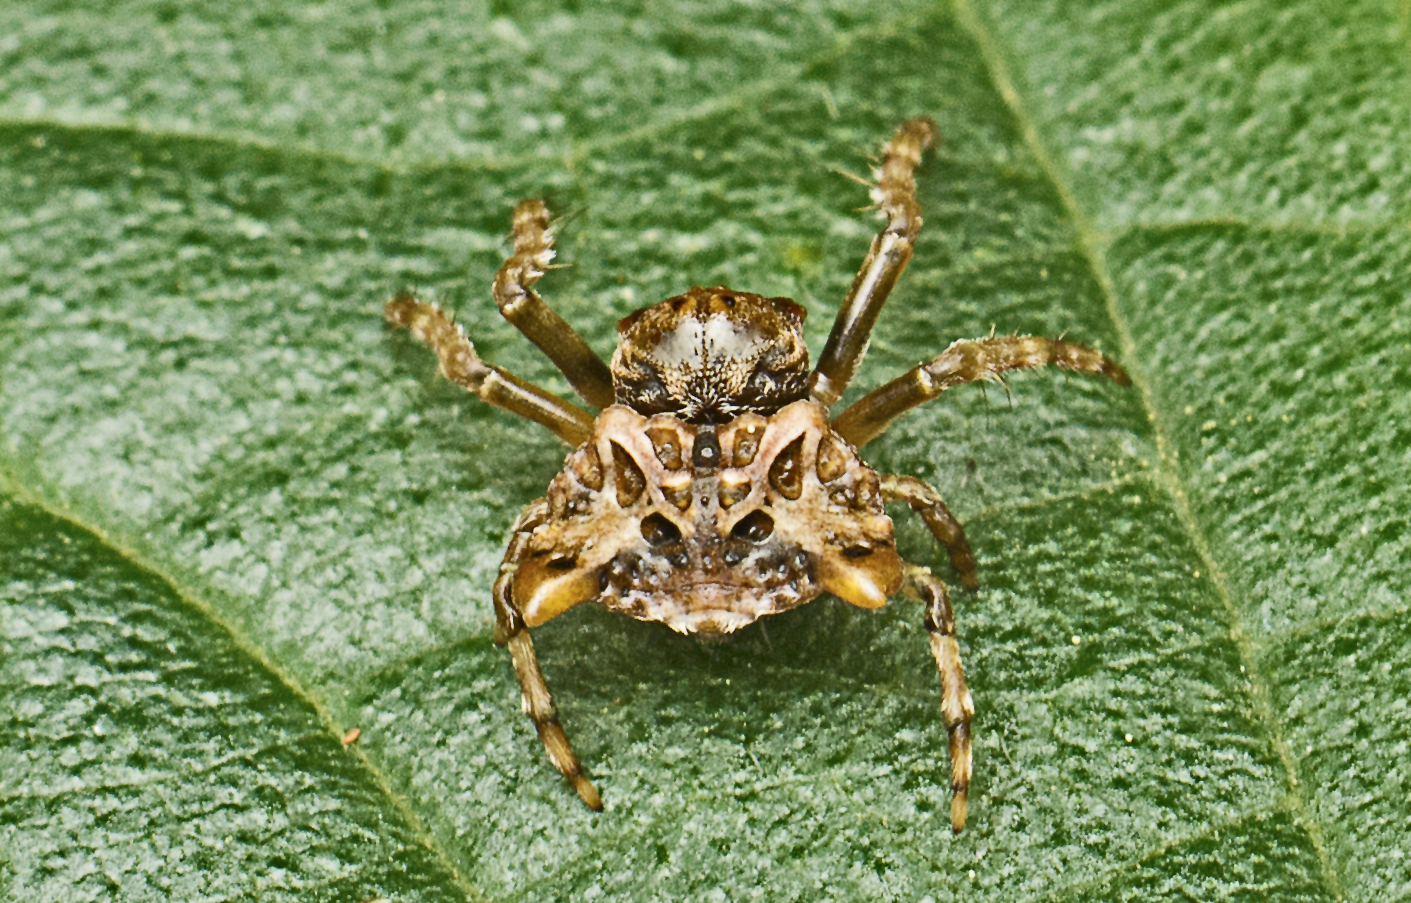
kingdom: Animalia
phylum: Arthropoda
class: Arachnida
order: Araneae
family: Arkyidae
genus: Arkys
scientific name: Arkys curtulus
